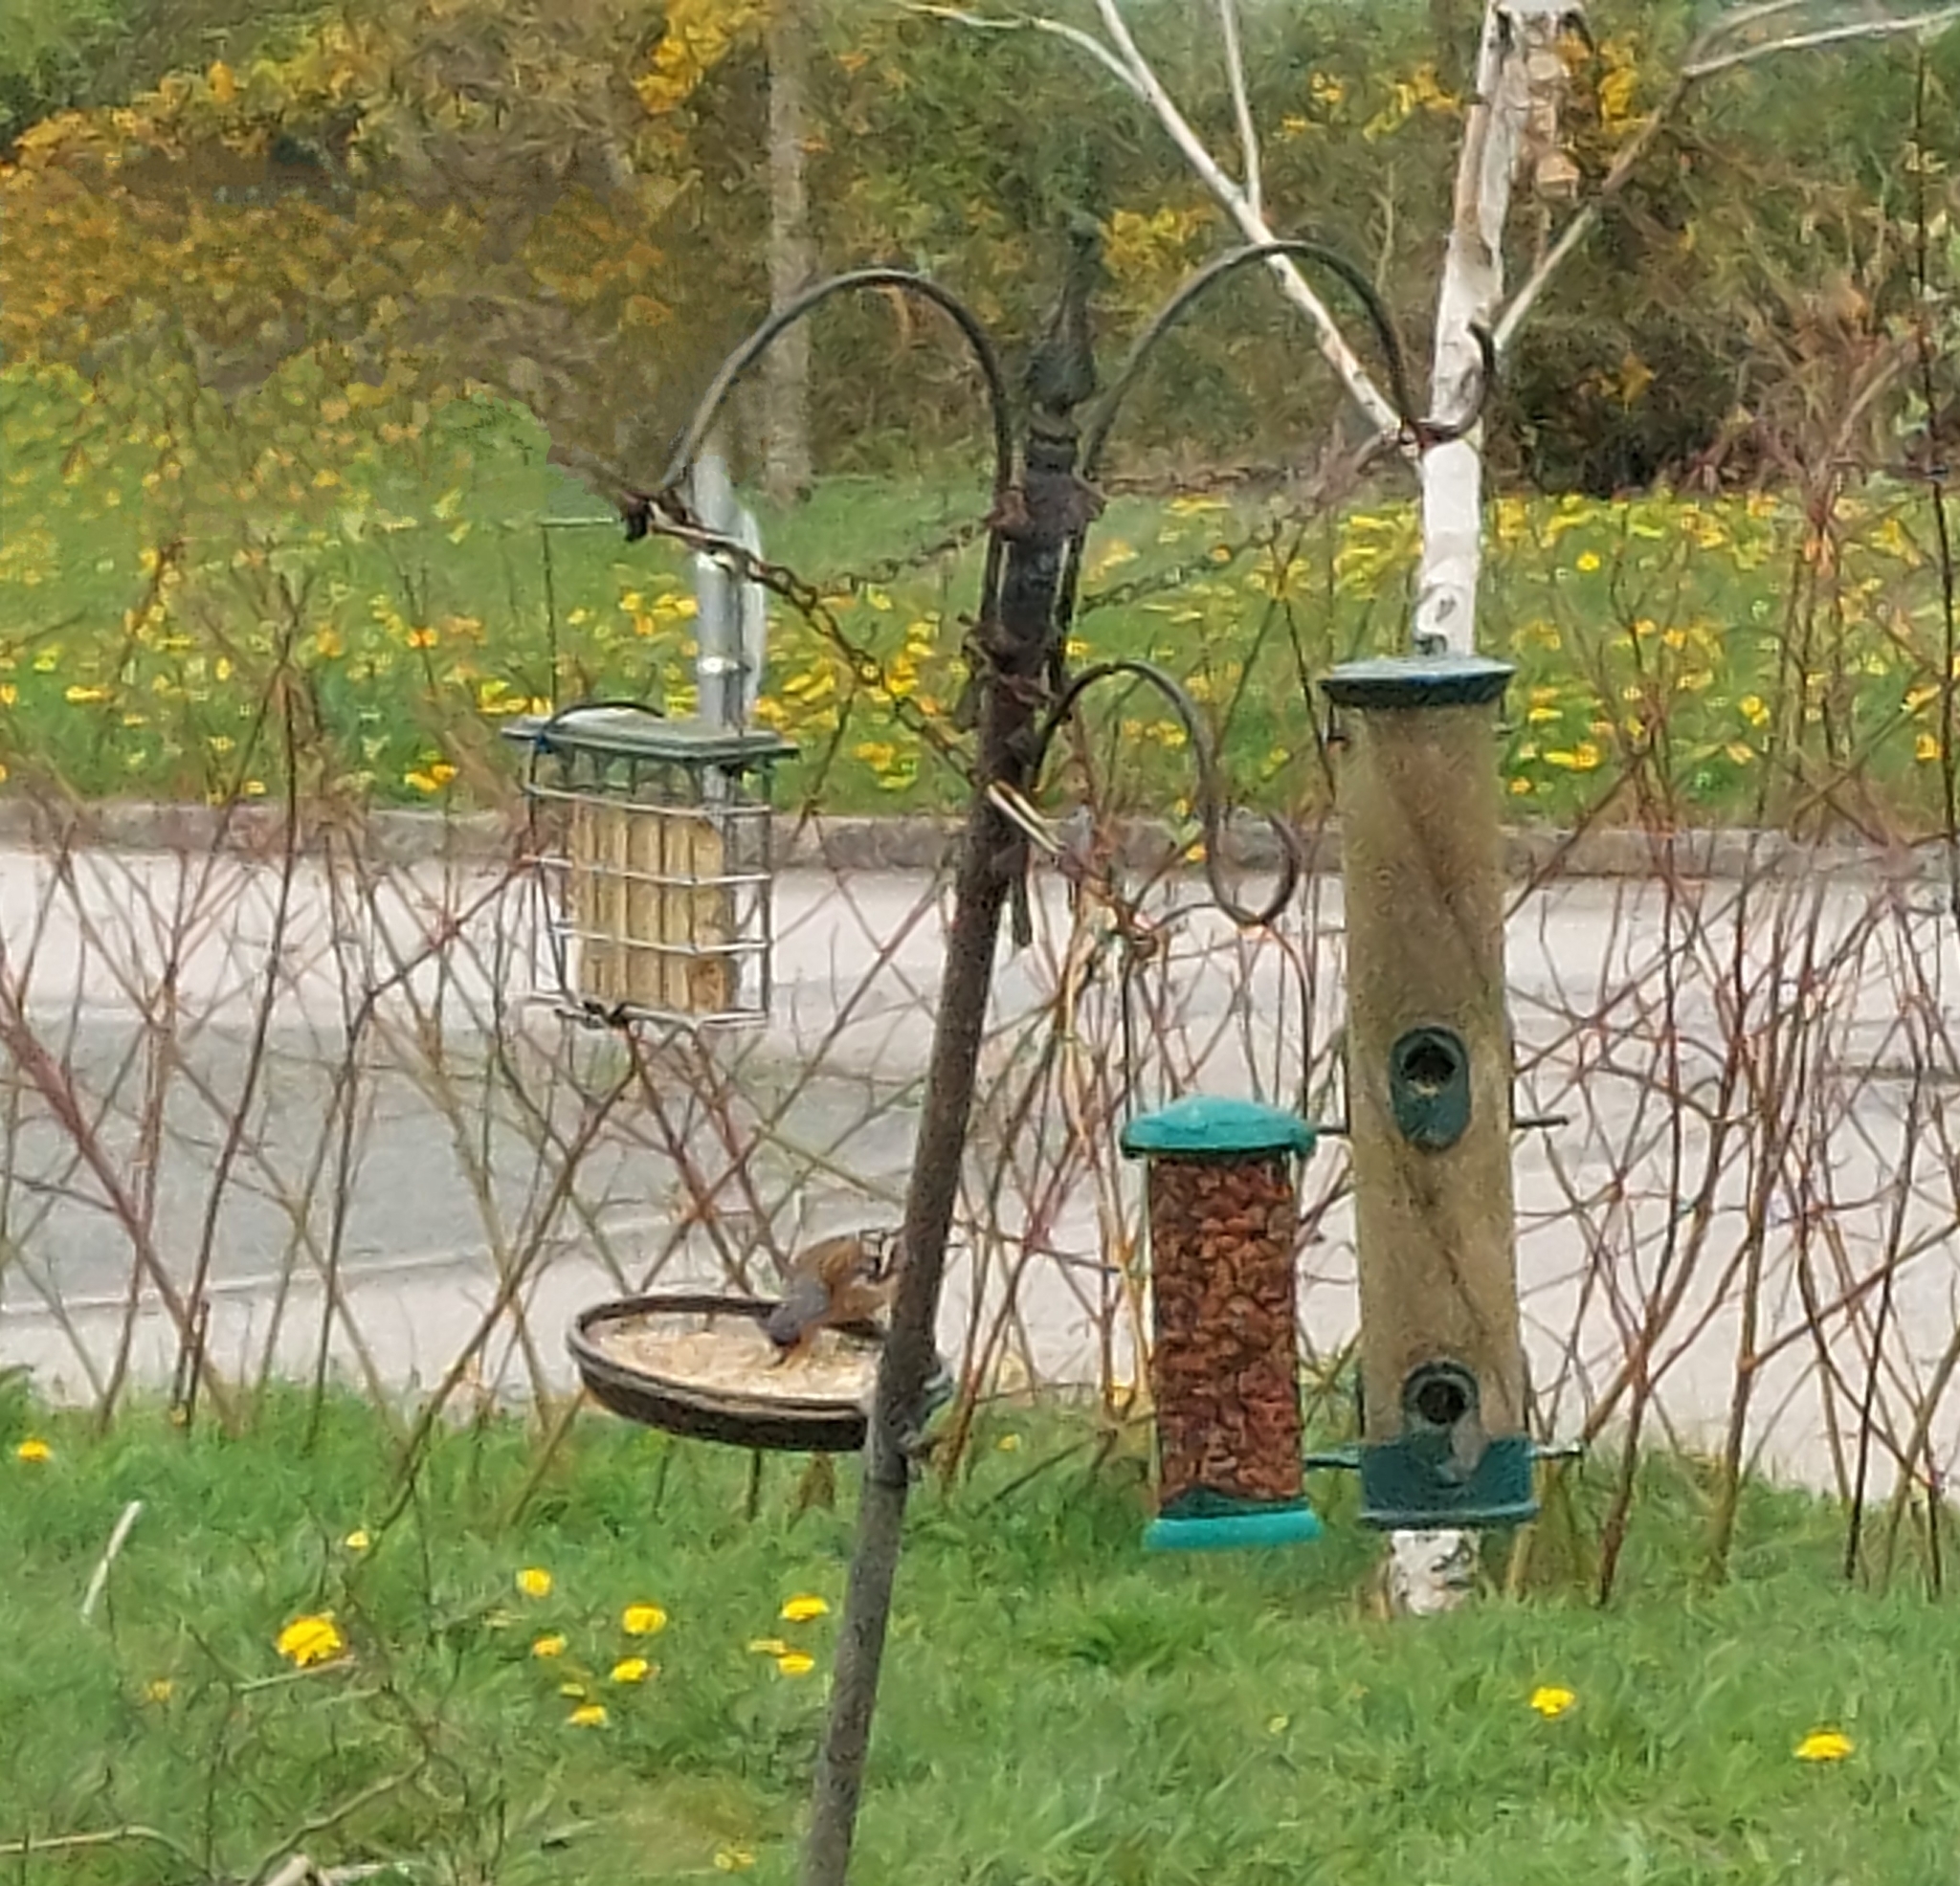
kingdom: Animalia
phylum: Chordata
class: Aves
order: Passeriformes
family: Fringillidae
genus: Fringilla
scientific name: Fringilla coelebs
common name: Common chaffinch
